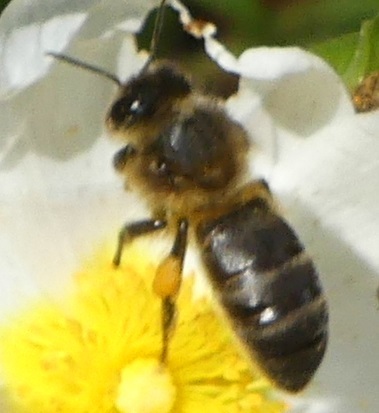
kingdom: Animalia
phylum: Arthropoda
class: Insecta
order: Hymenoptera
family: Apidae
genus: Apis
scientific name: Apis mellifera
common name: Honey bee
